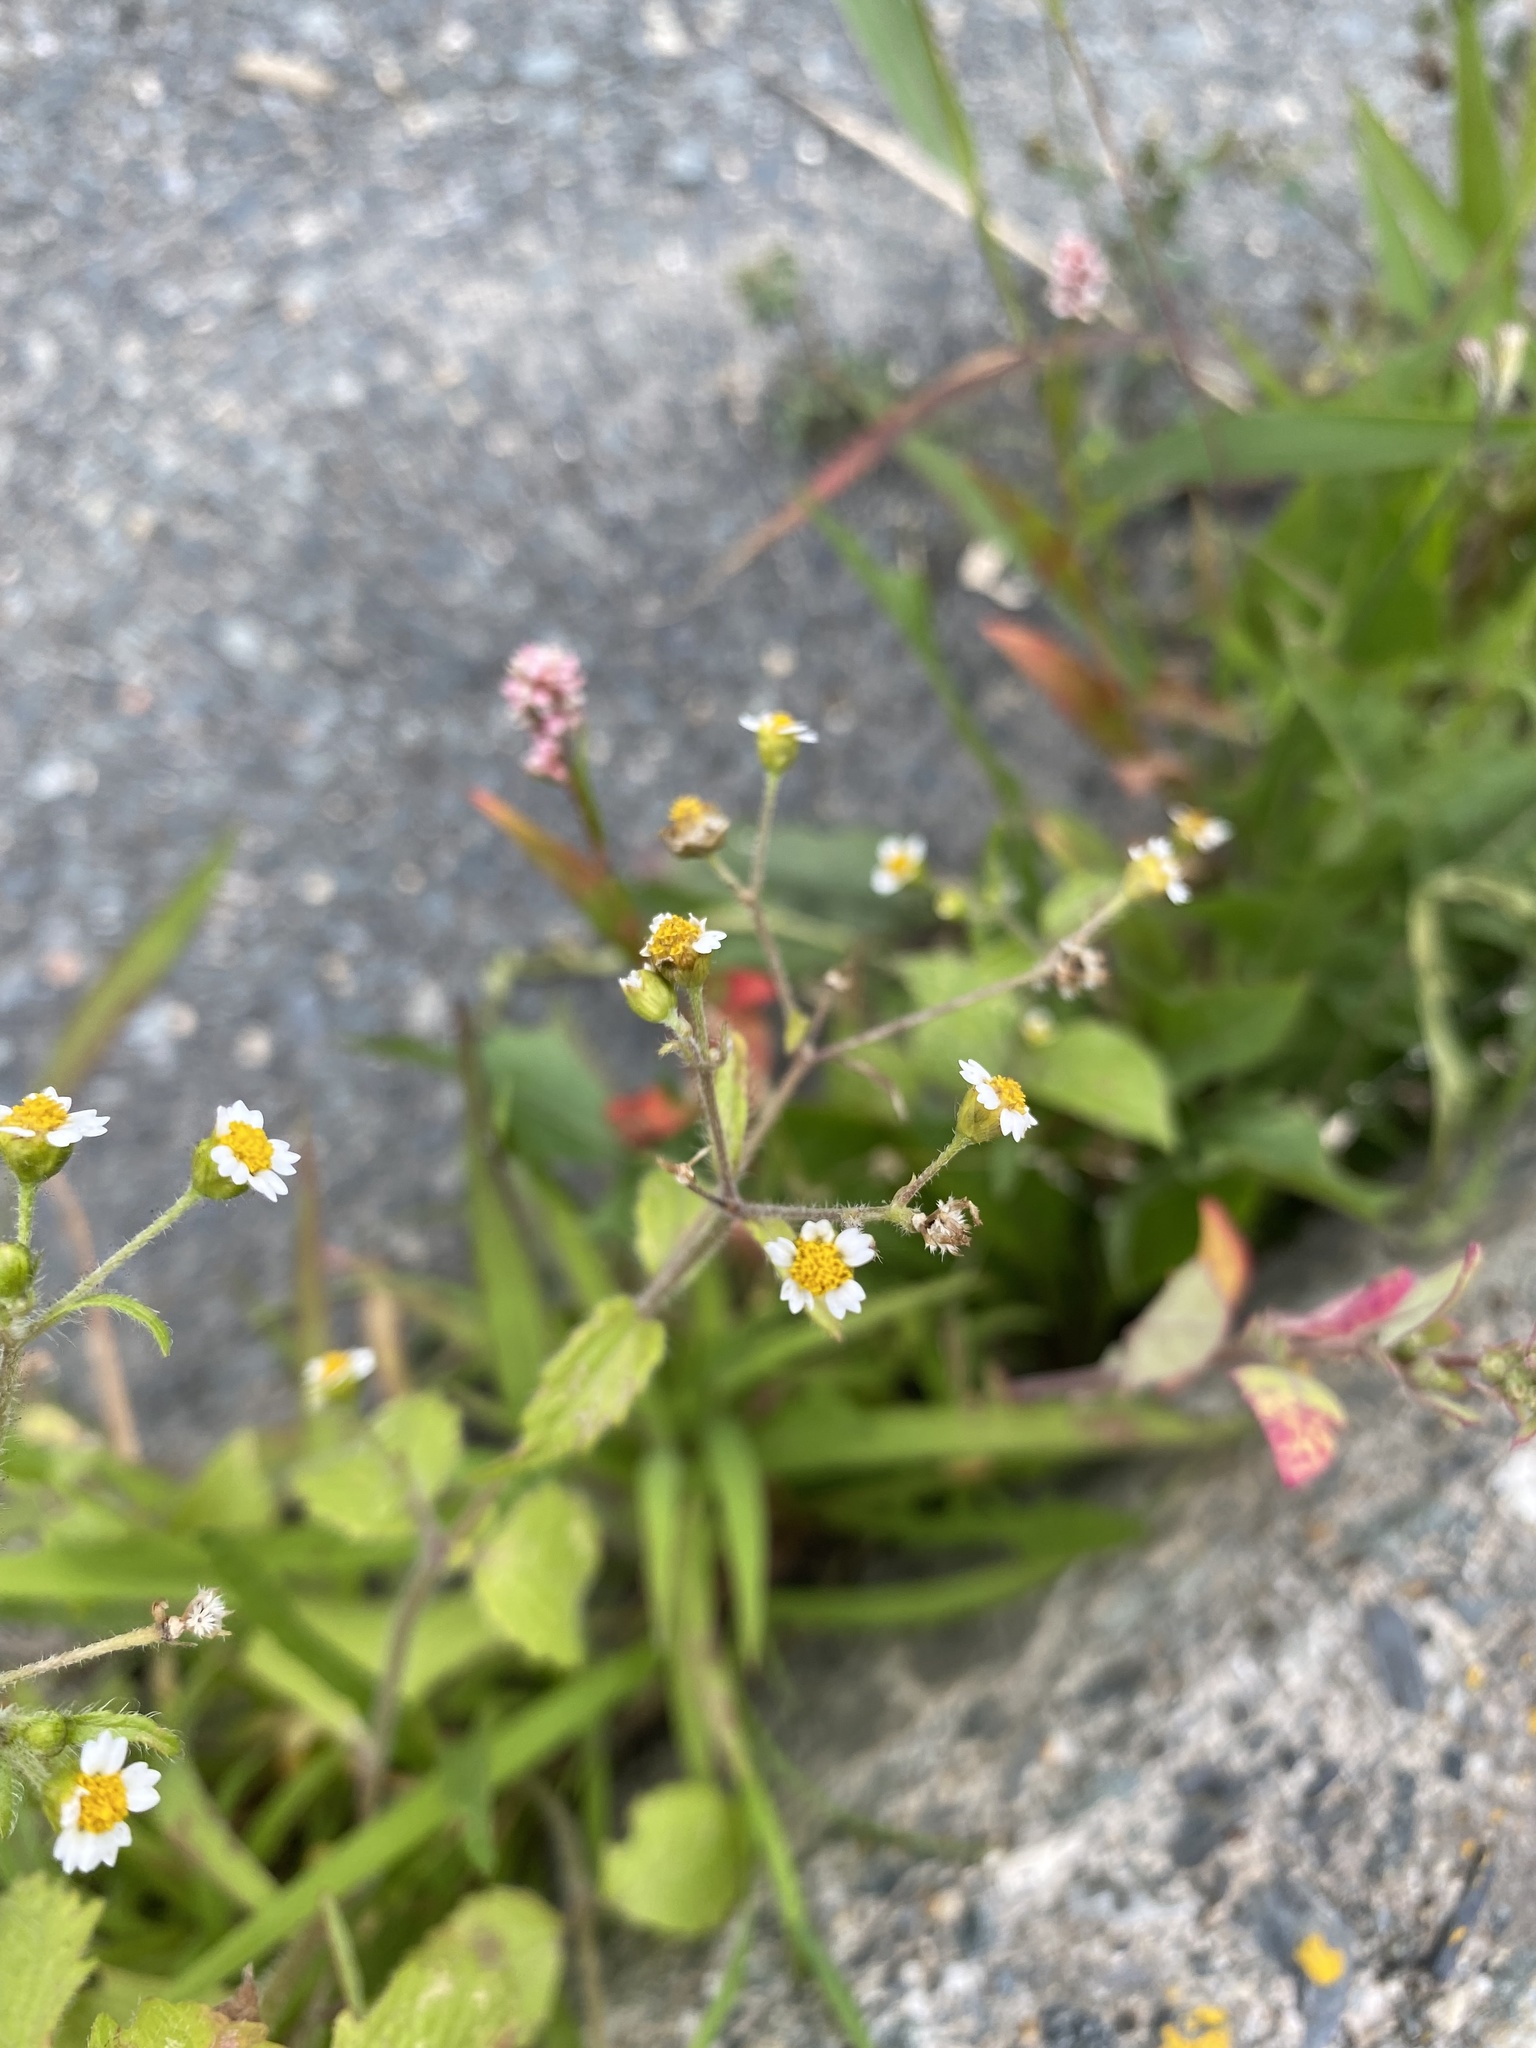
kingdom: Plantae
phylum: Tracheophyta
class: Magnoliopsida
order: Asterales
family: Asteraceae
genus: Galinsoga
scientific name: Galinsoga quadriradiata
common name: Shaggy soldier
